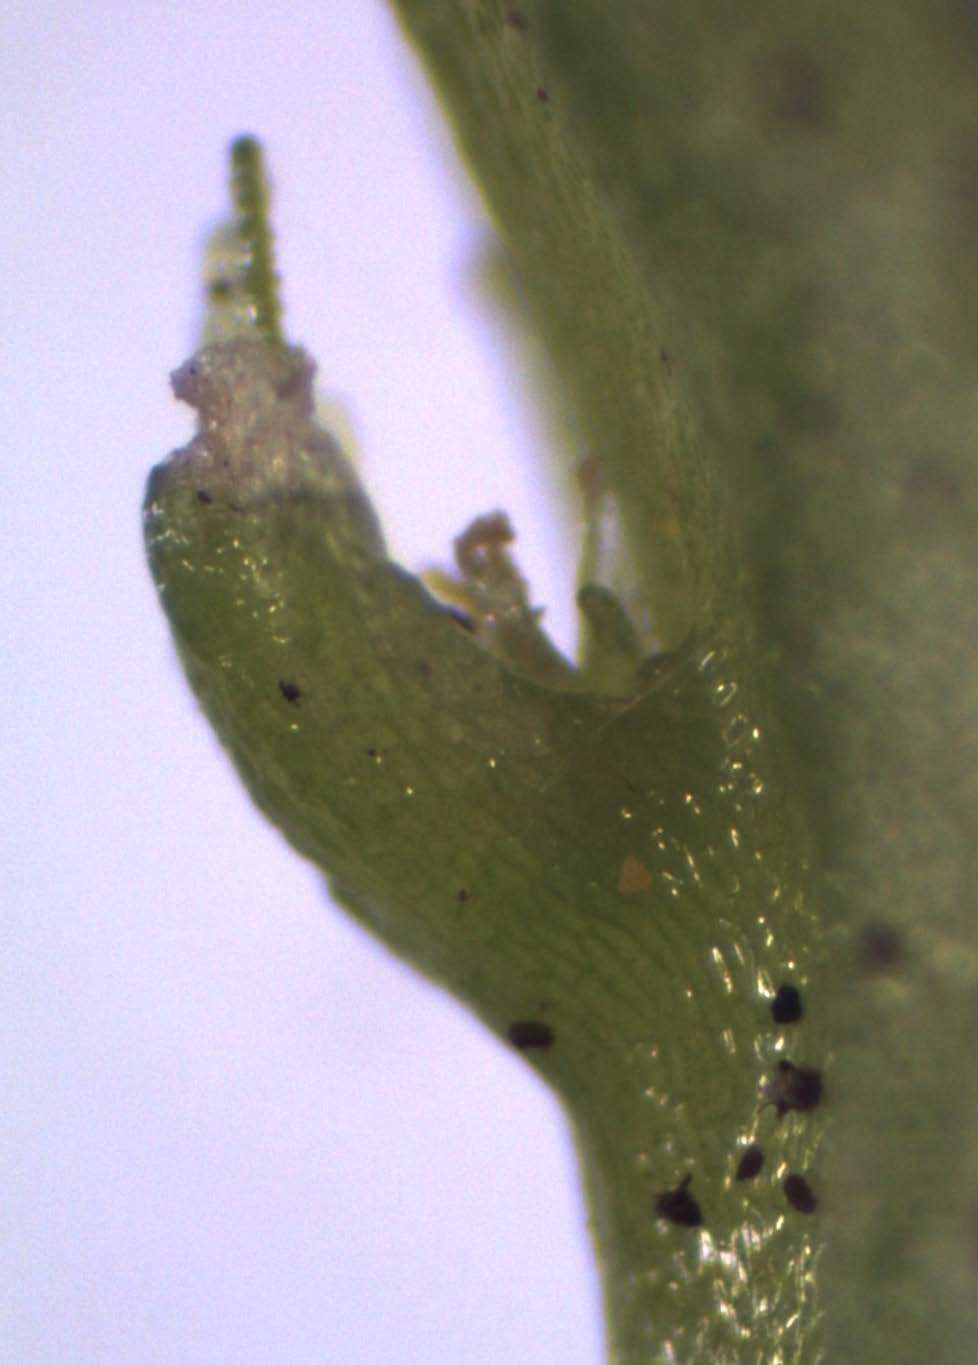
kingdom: Plantae
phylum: Marchantiophyta
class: Jungermanniopsida
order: Pallaviciniales
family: Pallaviciniaceae
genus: Symphyogyna
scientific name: Symphyogyna subsimplex
